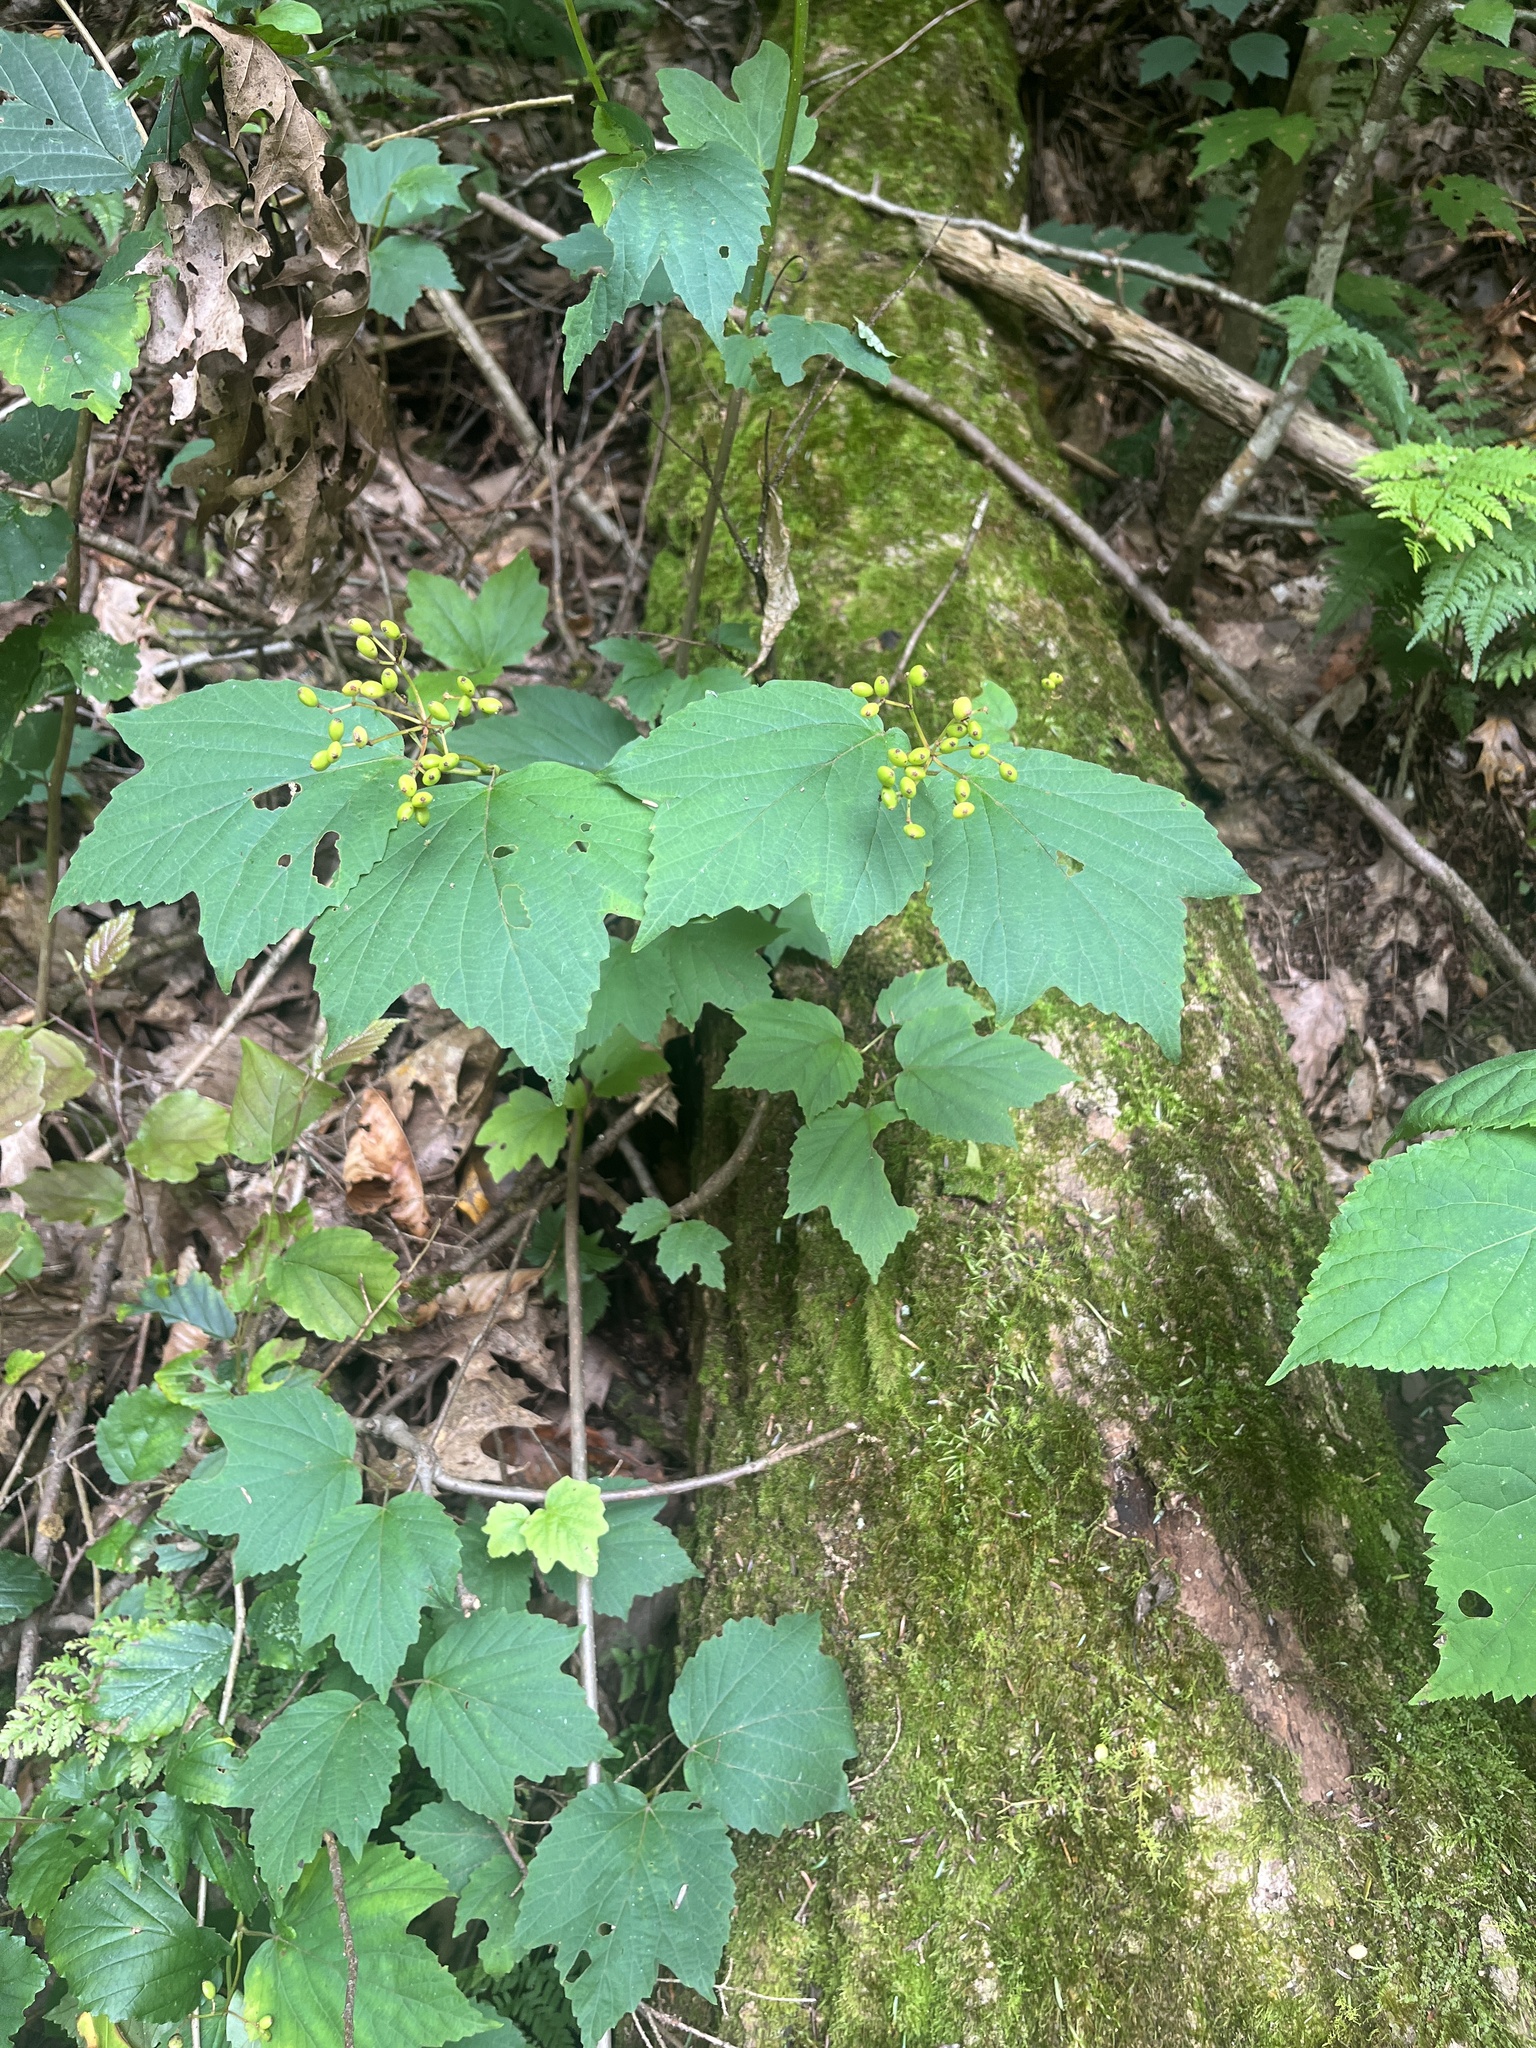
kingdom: Plantae
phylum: Tracheophyta
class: Magnoliopsida
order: Dipsacales
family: Viburnaceae
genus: Viburnum
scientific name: Viburnum acerifolium
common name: Dockmackie
